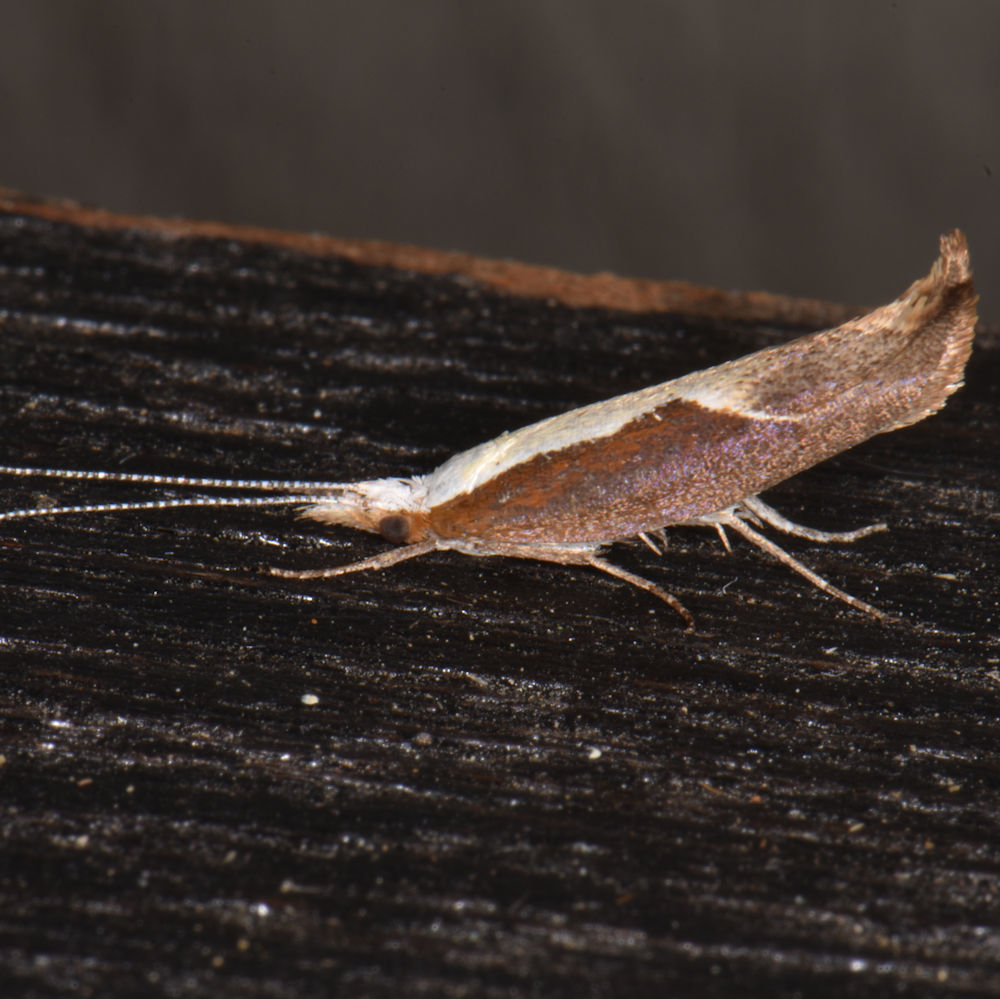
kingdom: Animalia
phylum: Arthropoda
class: Insecta
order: Lepidoptera
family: Ypsolophidae
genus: Ypsolopha
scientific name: Ypsolopha dentella
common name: Honeysuckle moth
